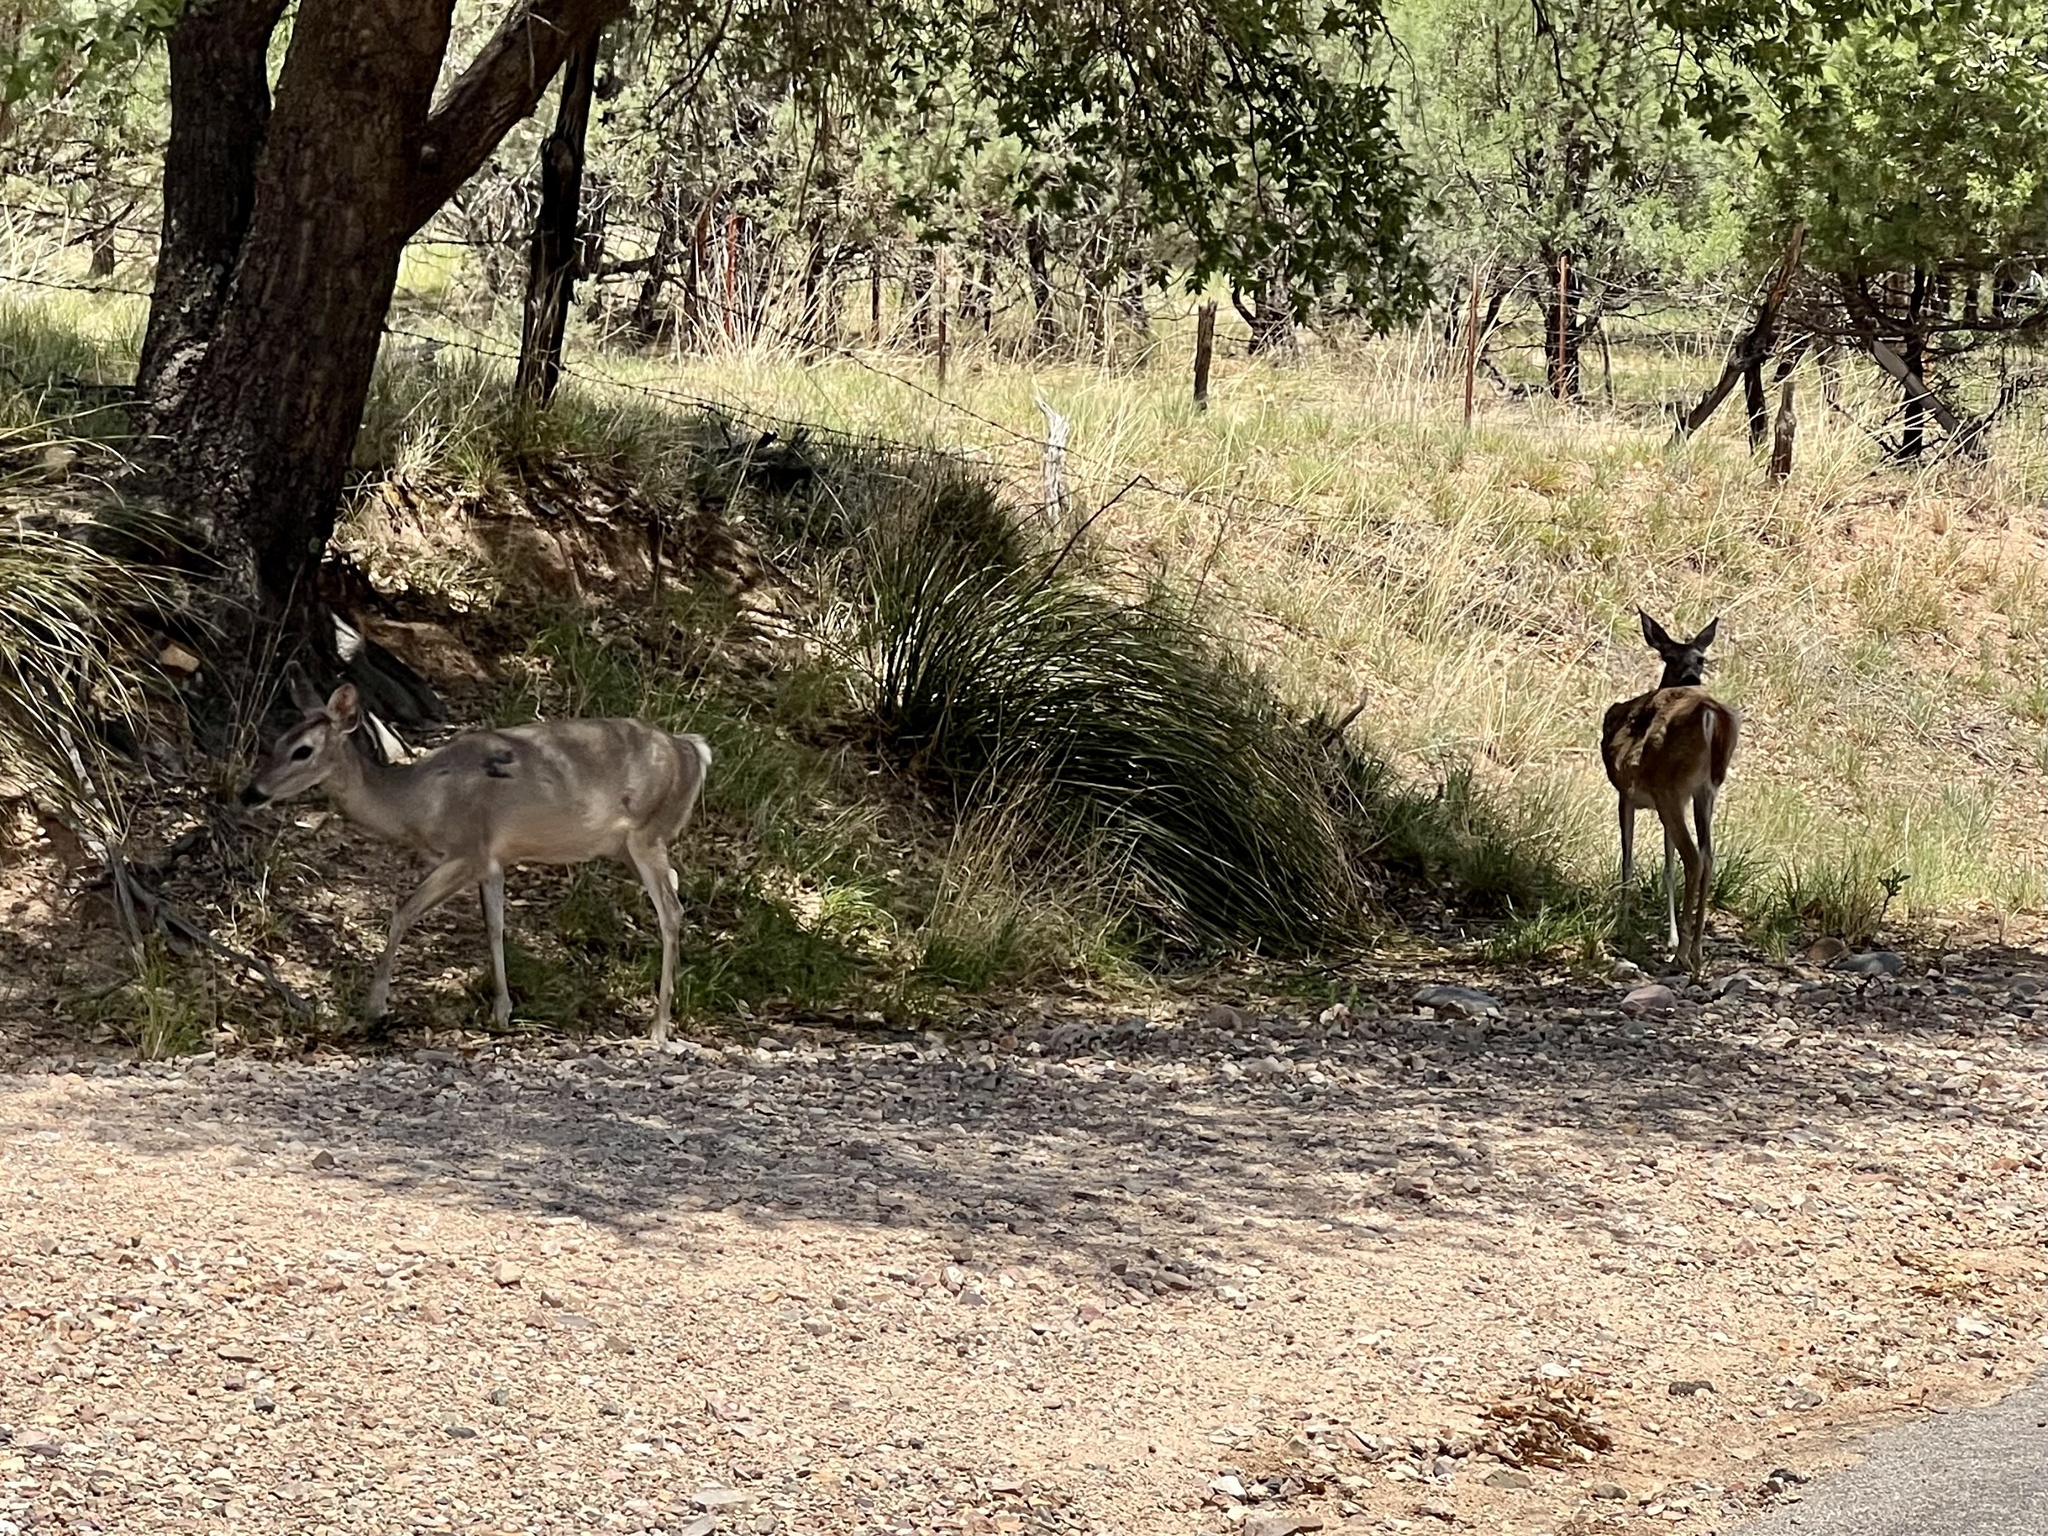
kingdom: Animalia
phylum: Chordata
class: Mammalia
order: Artiodactyla
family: Cervidae
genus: Odocoileus
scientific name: Odocoileus virginianus
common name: White-tailed deer
